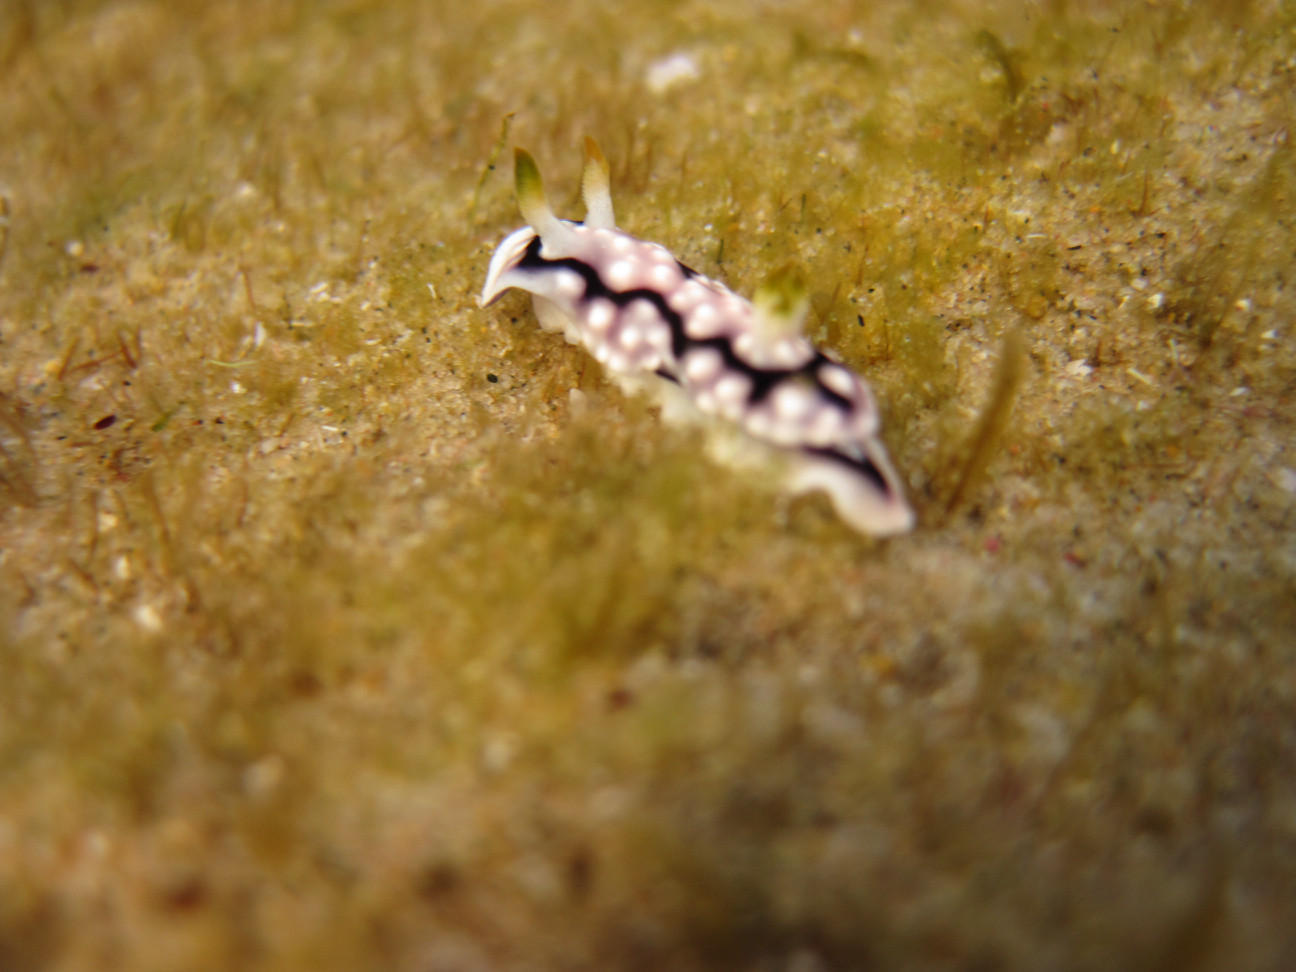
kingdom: Animalia
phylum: Mollusca
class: Gastropoda
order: Nudibranchia
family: Chromodorididae
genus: Goniobranchus
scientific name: Goniobranchus geometricus
